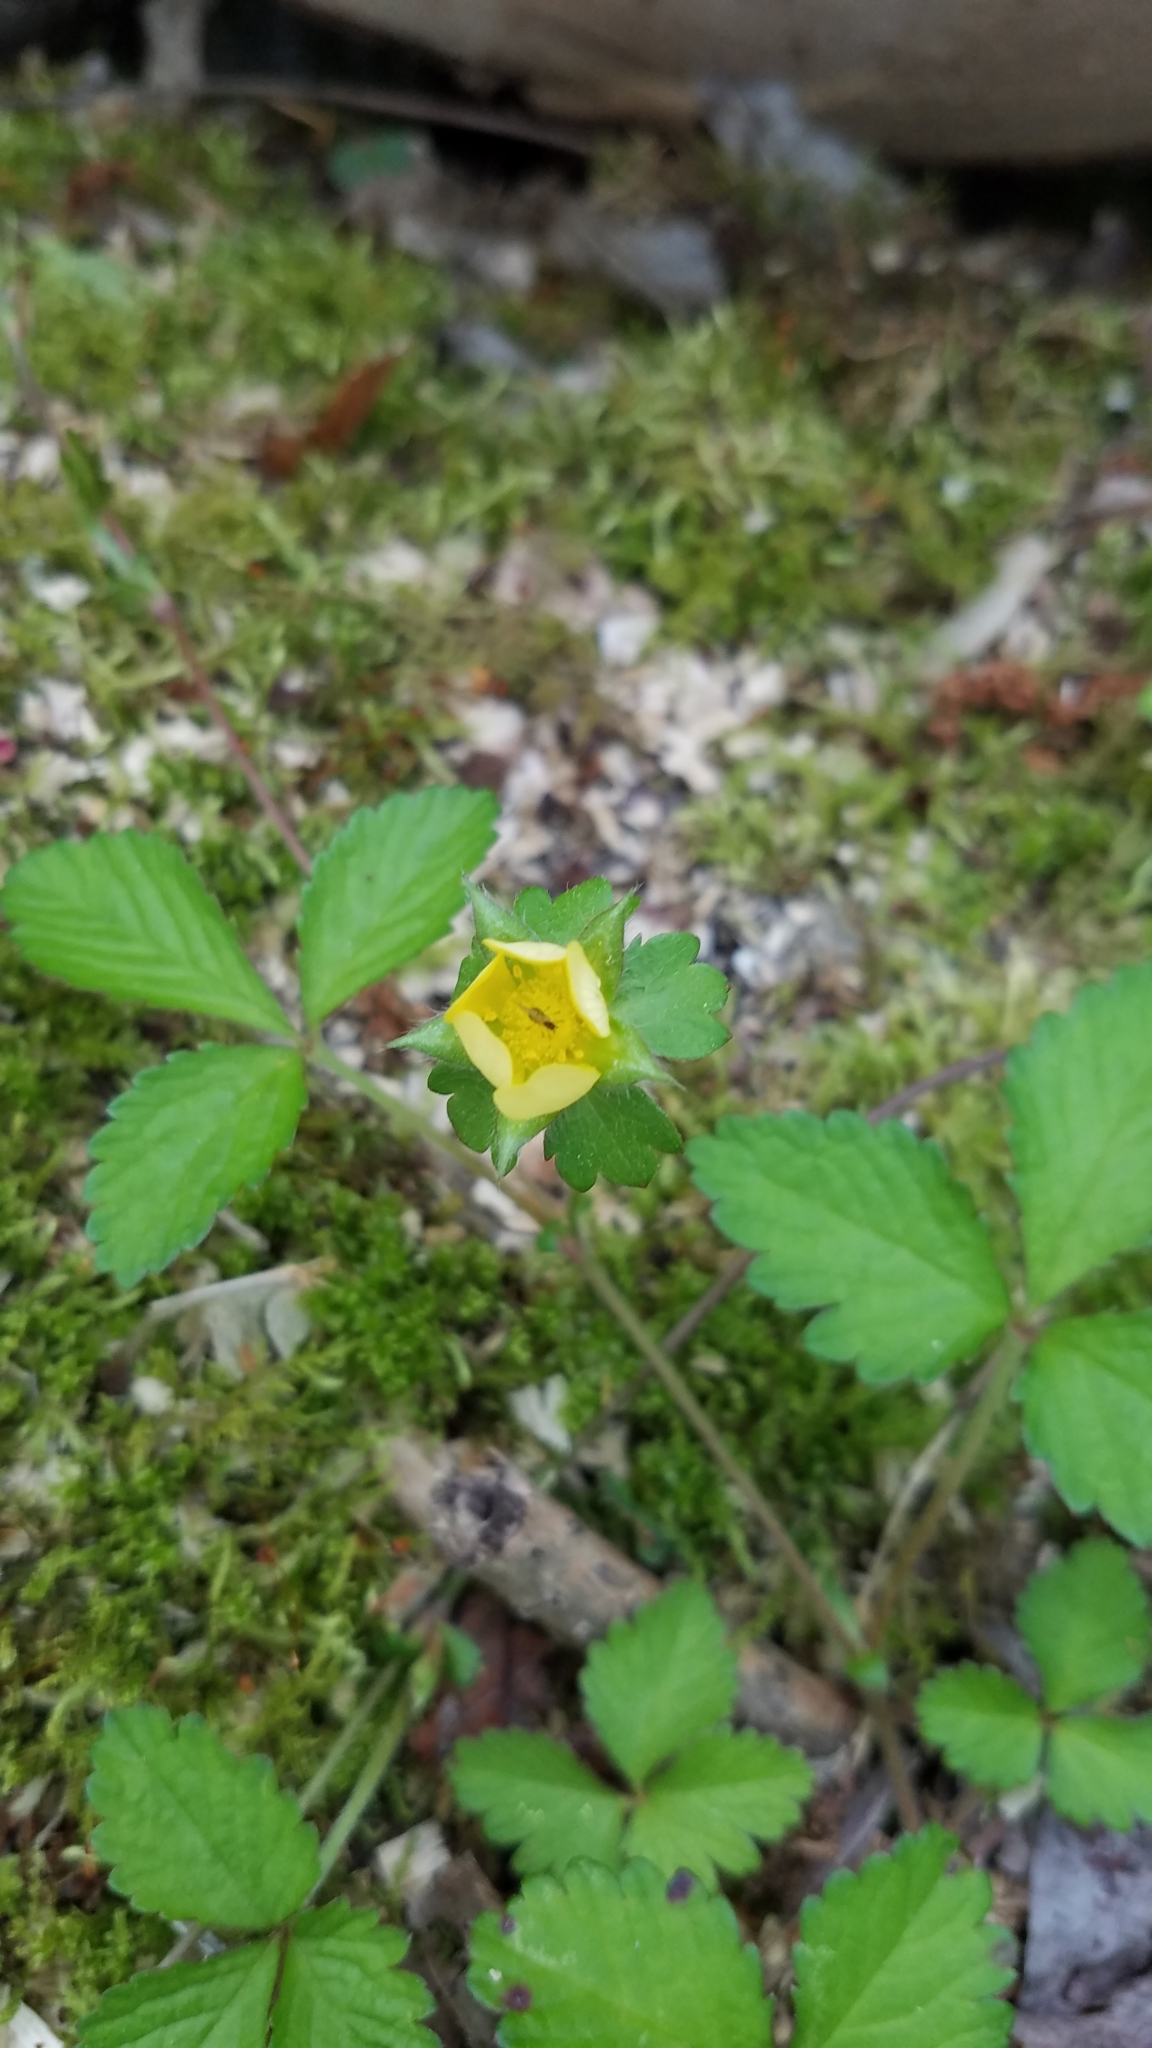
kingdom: Plantae
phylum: Tracheophyta
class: Magnoliopsida
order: Rosales
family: Rosaceae
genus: Potentilla
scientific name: Potentilla indica
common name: Yellow-flowered strawberry
